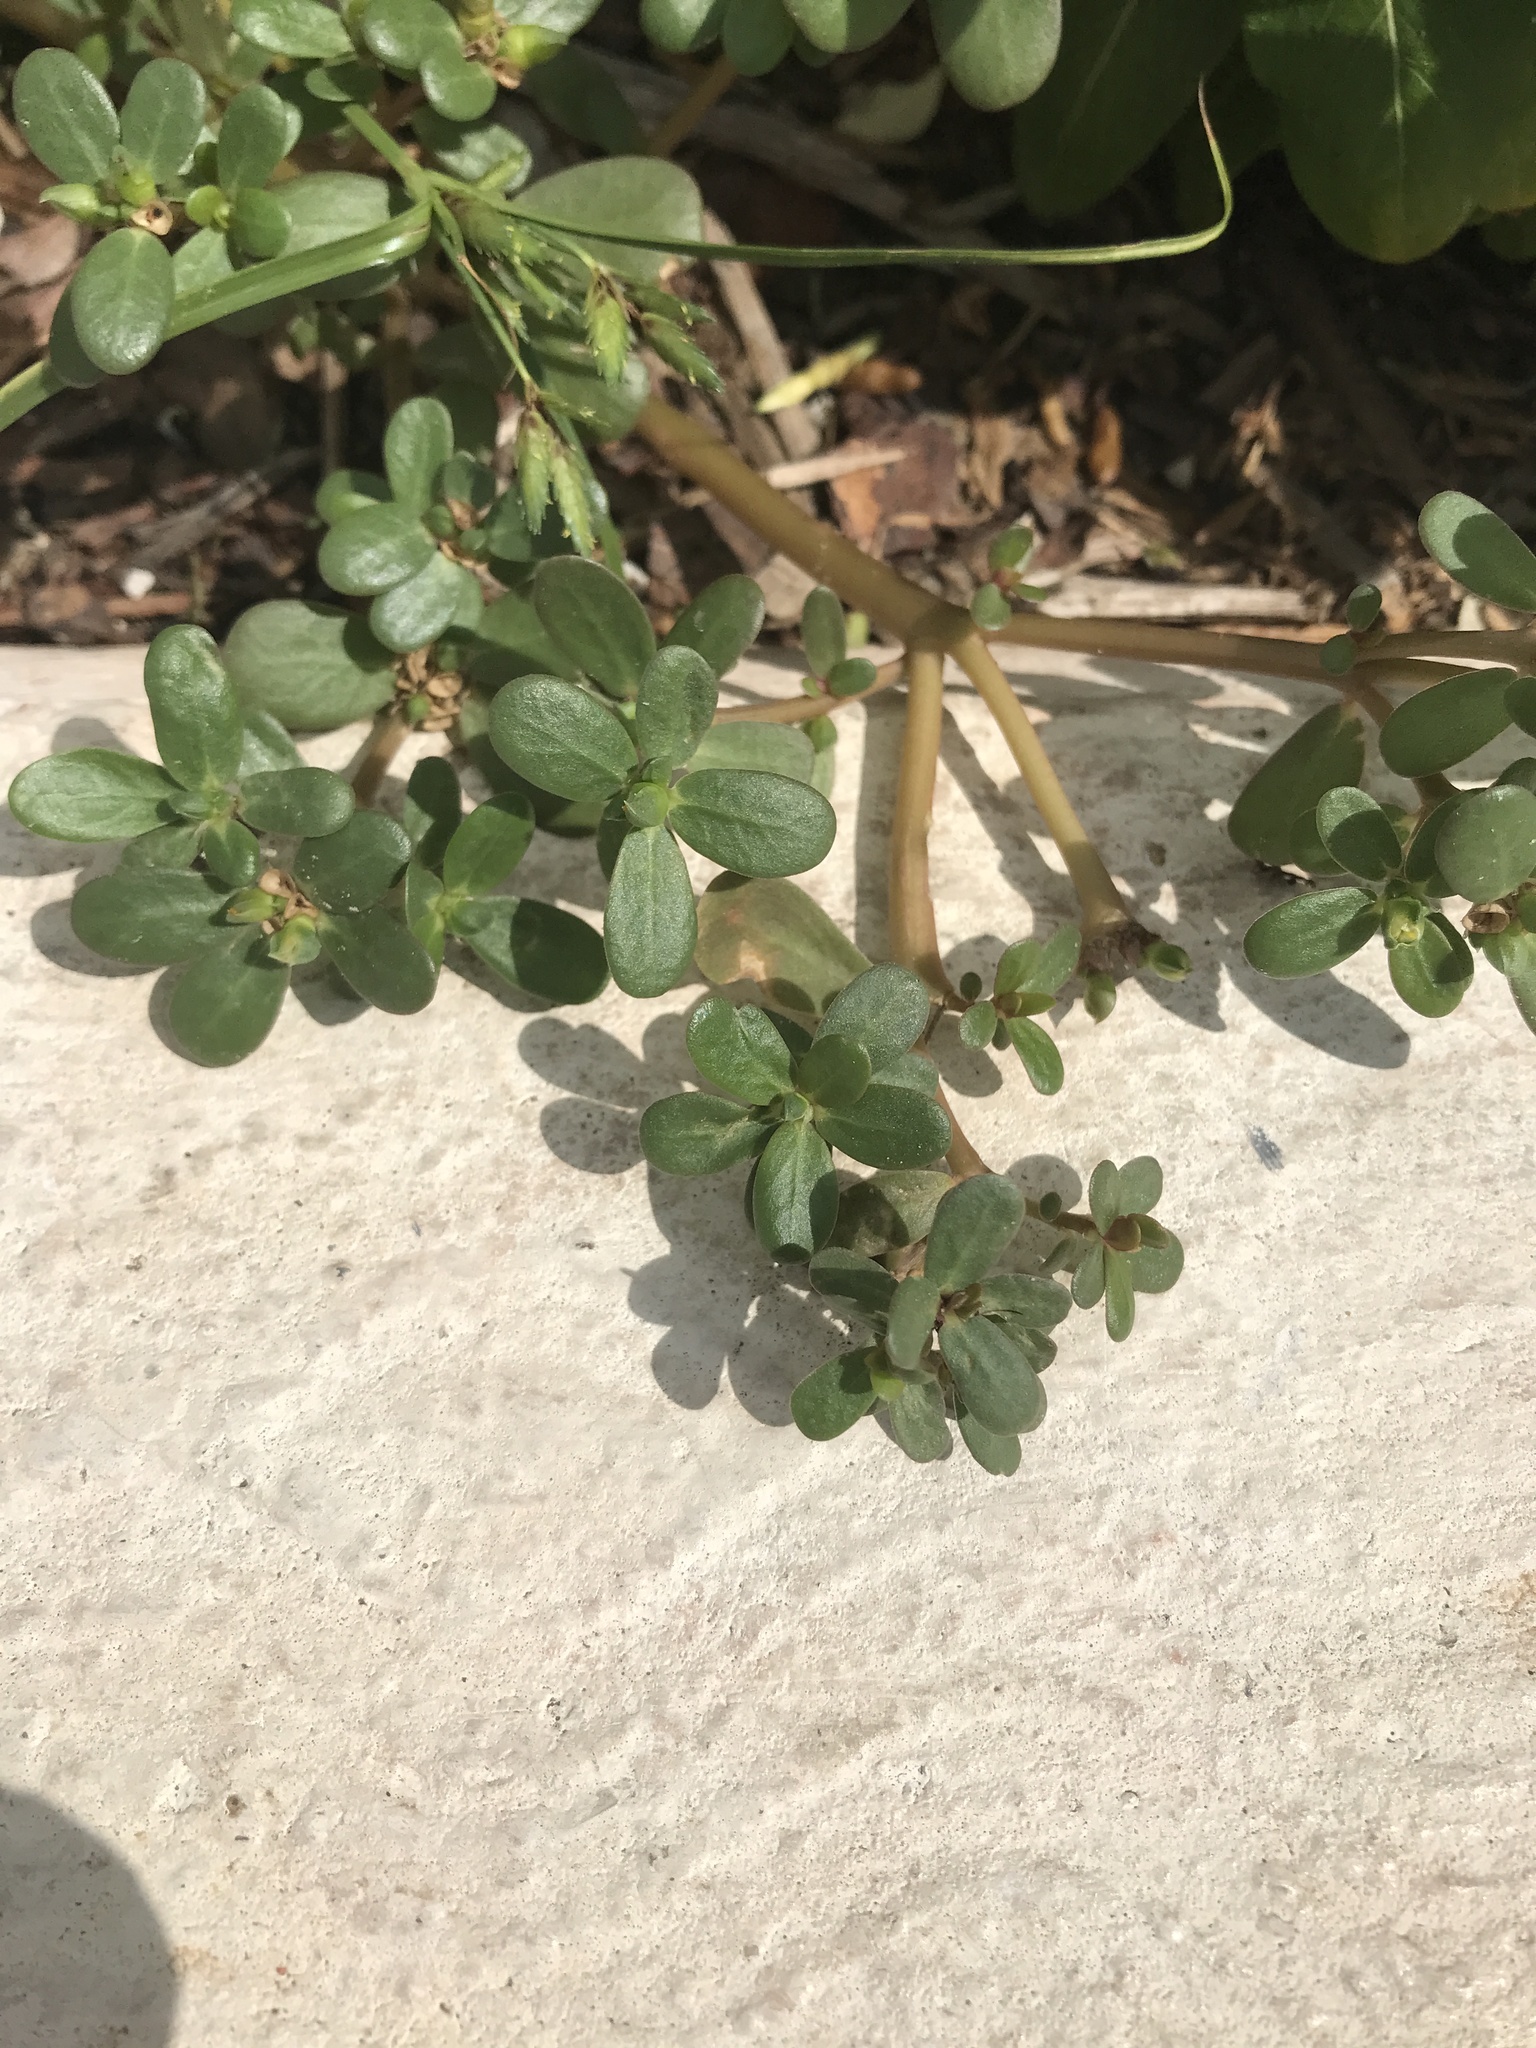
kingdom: Plantae
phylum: Tracheophyta
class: Magnoliopsida
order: Caryophyllales
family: Portulacaceae
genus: Portulaca
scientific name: Portulaca oleracea
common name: Common purslane
